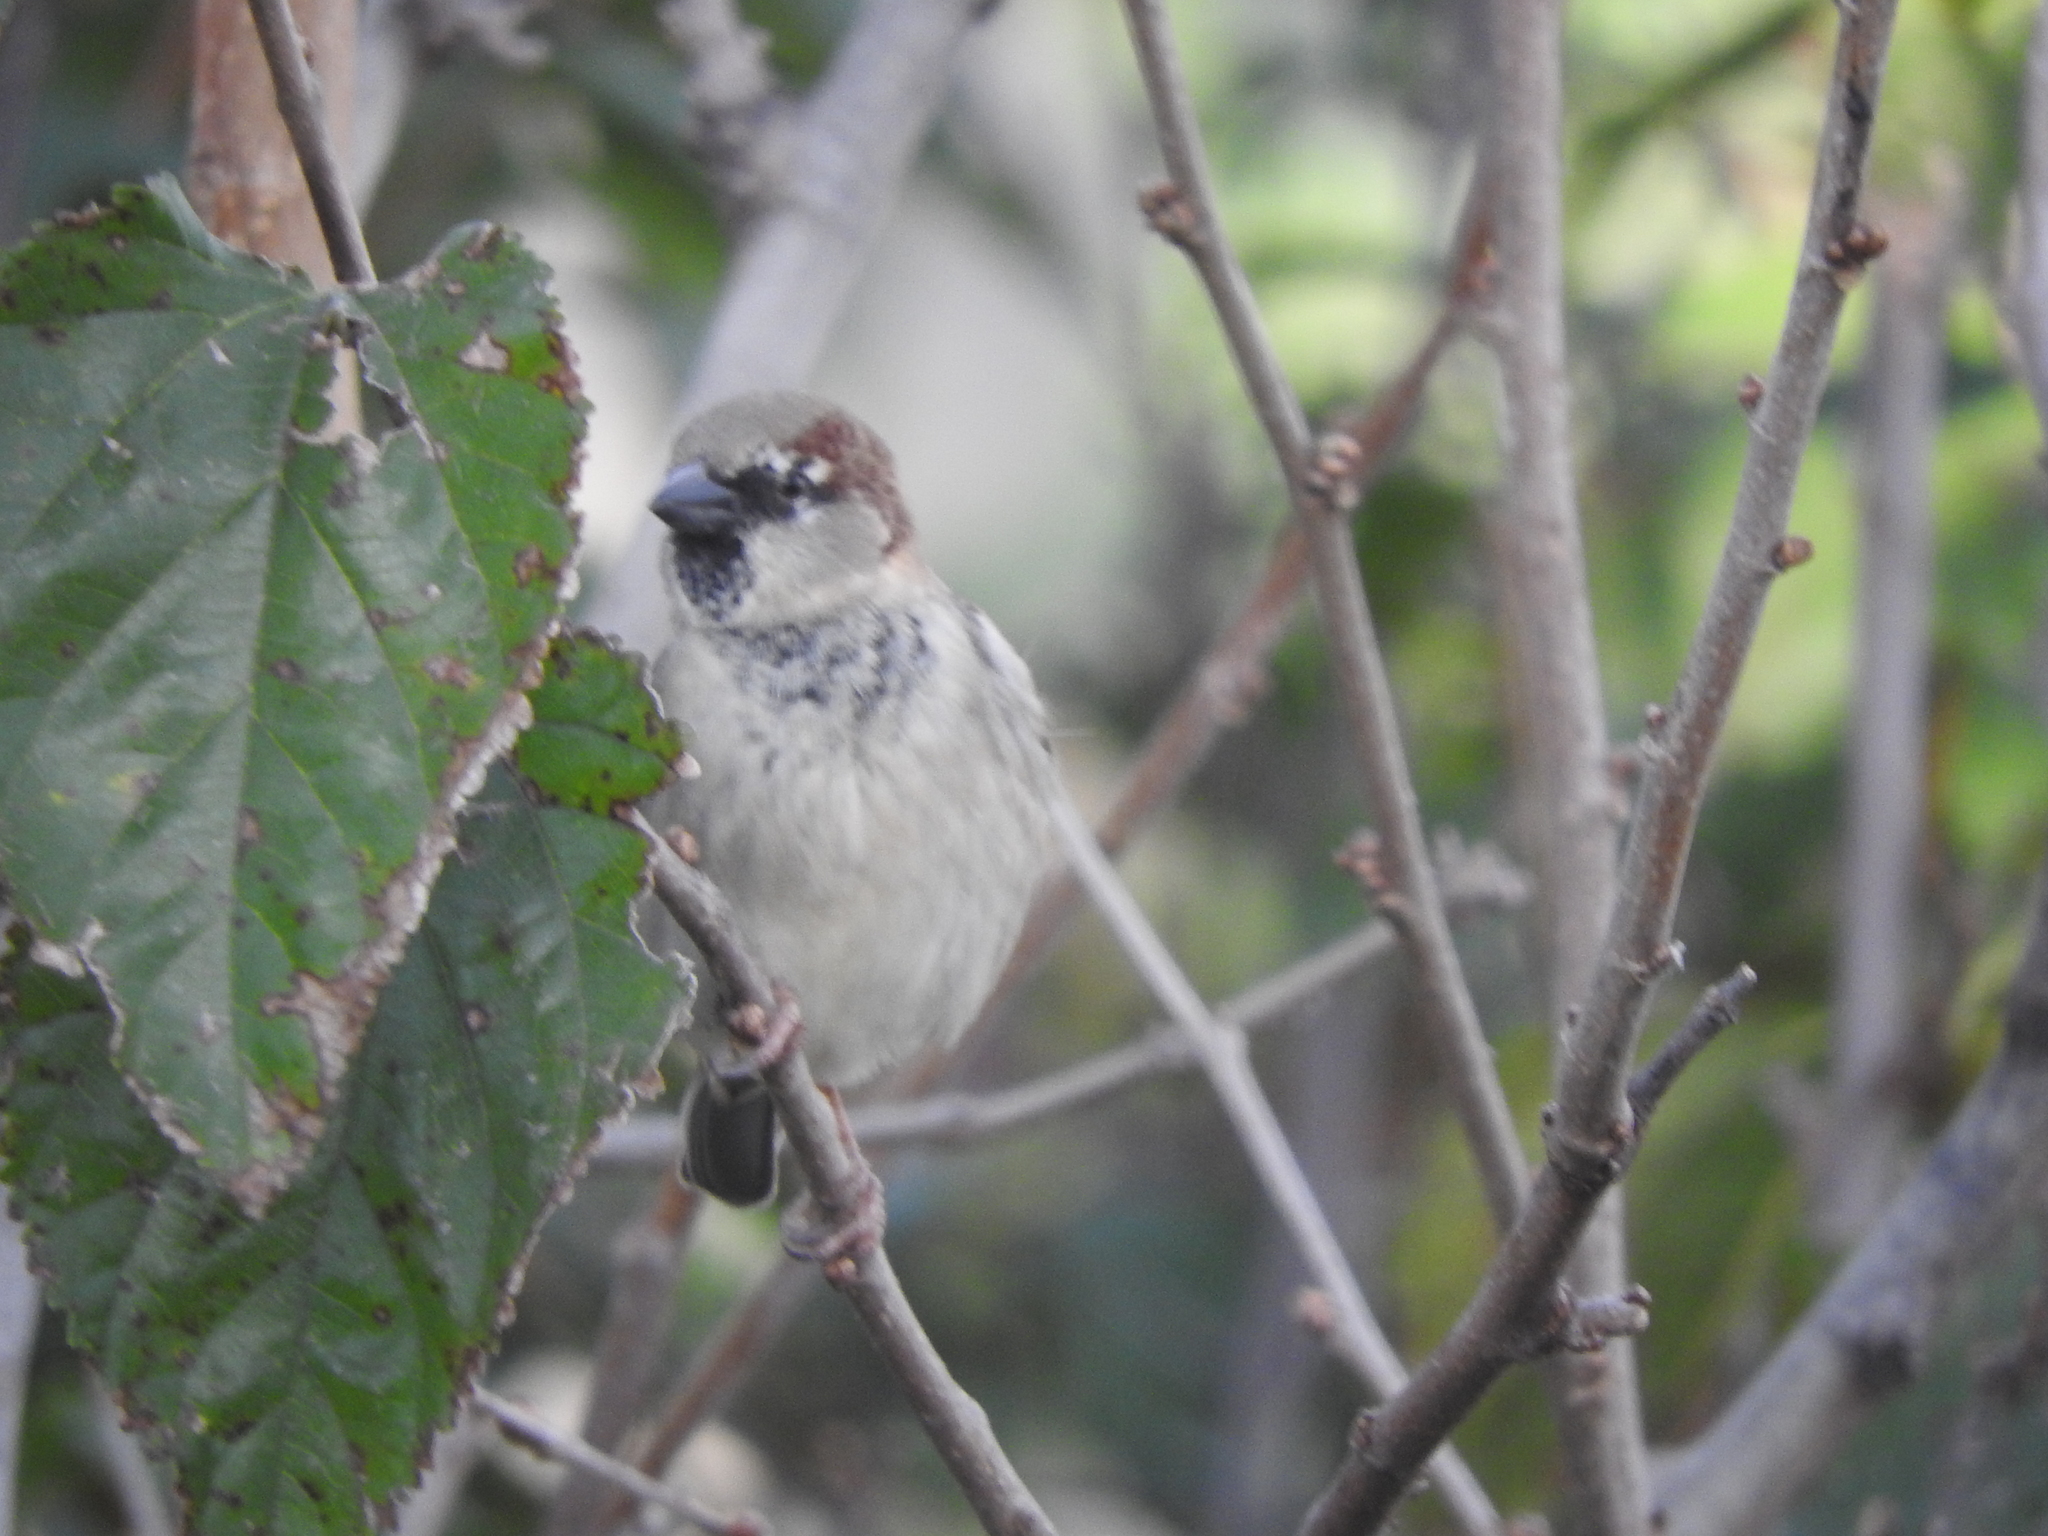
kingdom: Animalia
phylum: Chordata
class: Aves
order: Passeriformes
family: Passeridae
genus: Passer
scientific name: Passer domesticus
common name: House sparrow
